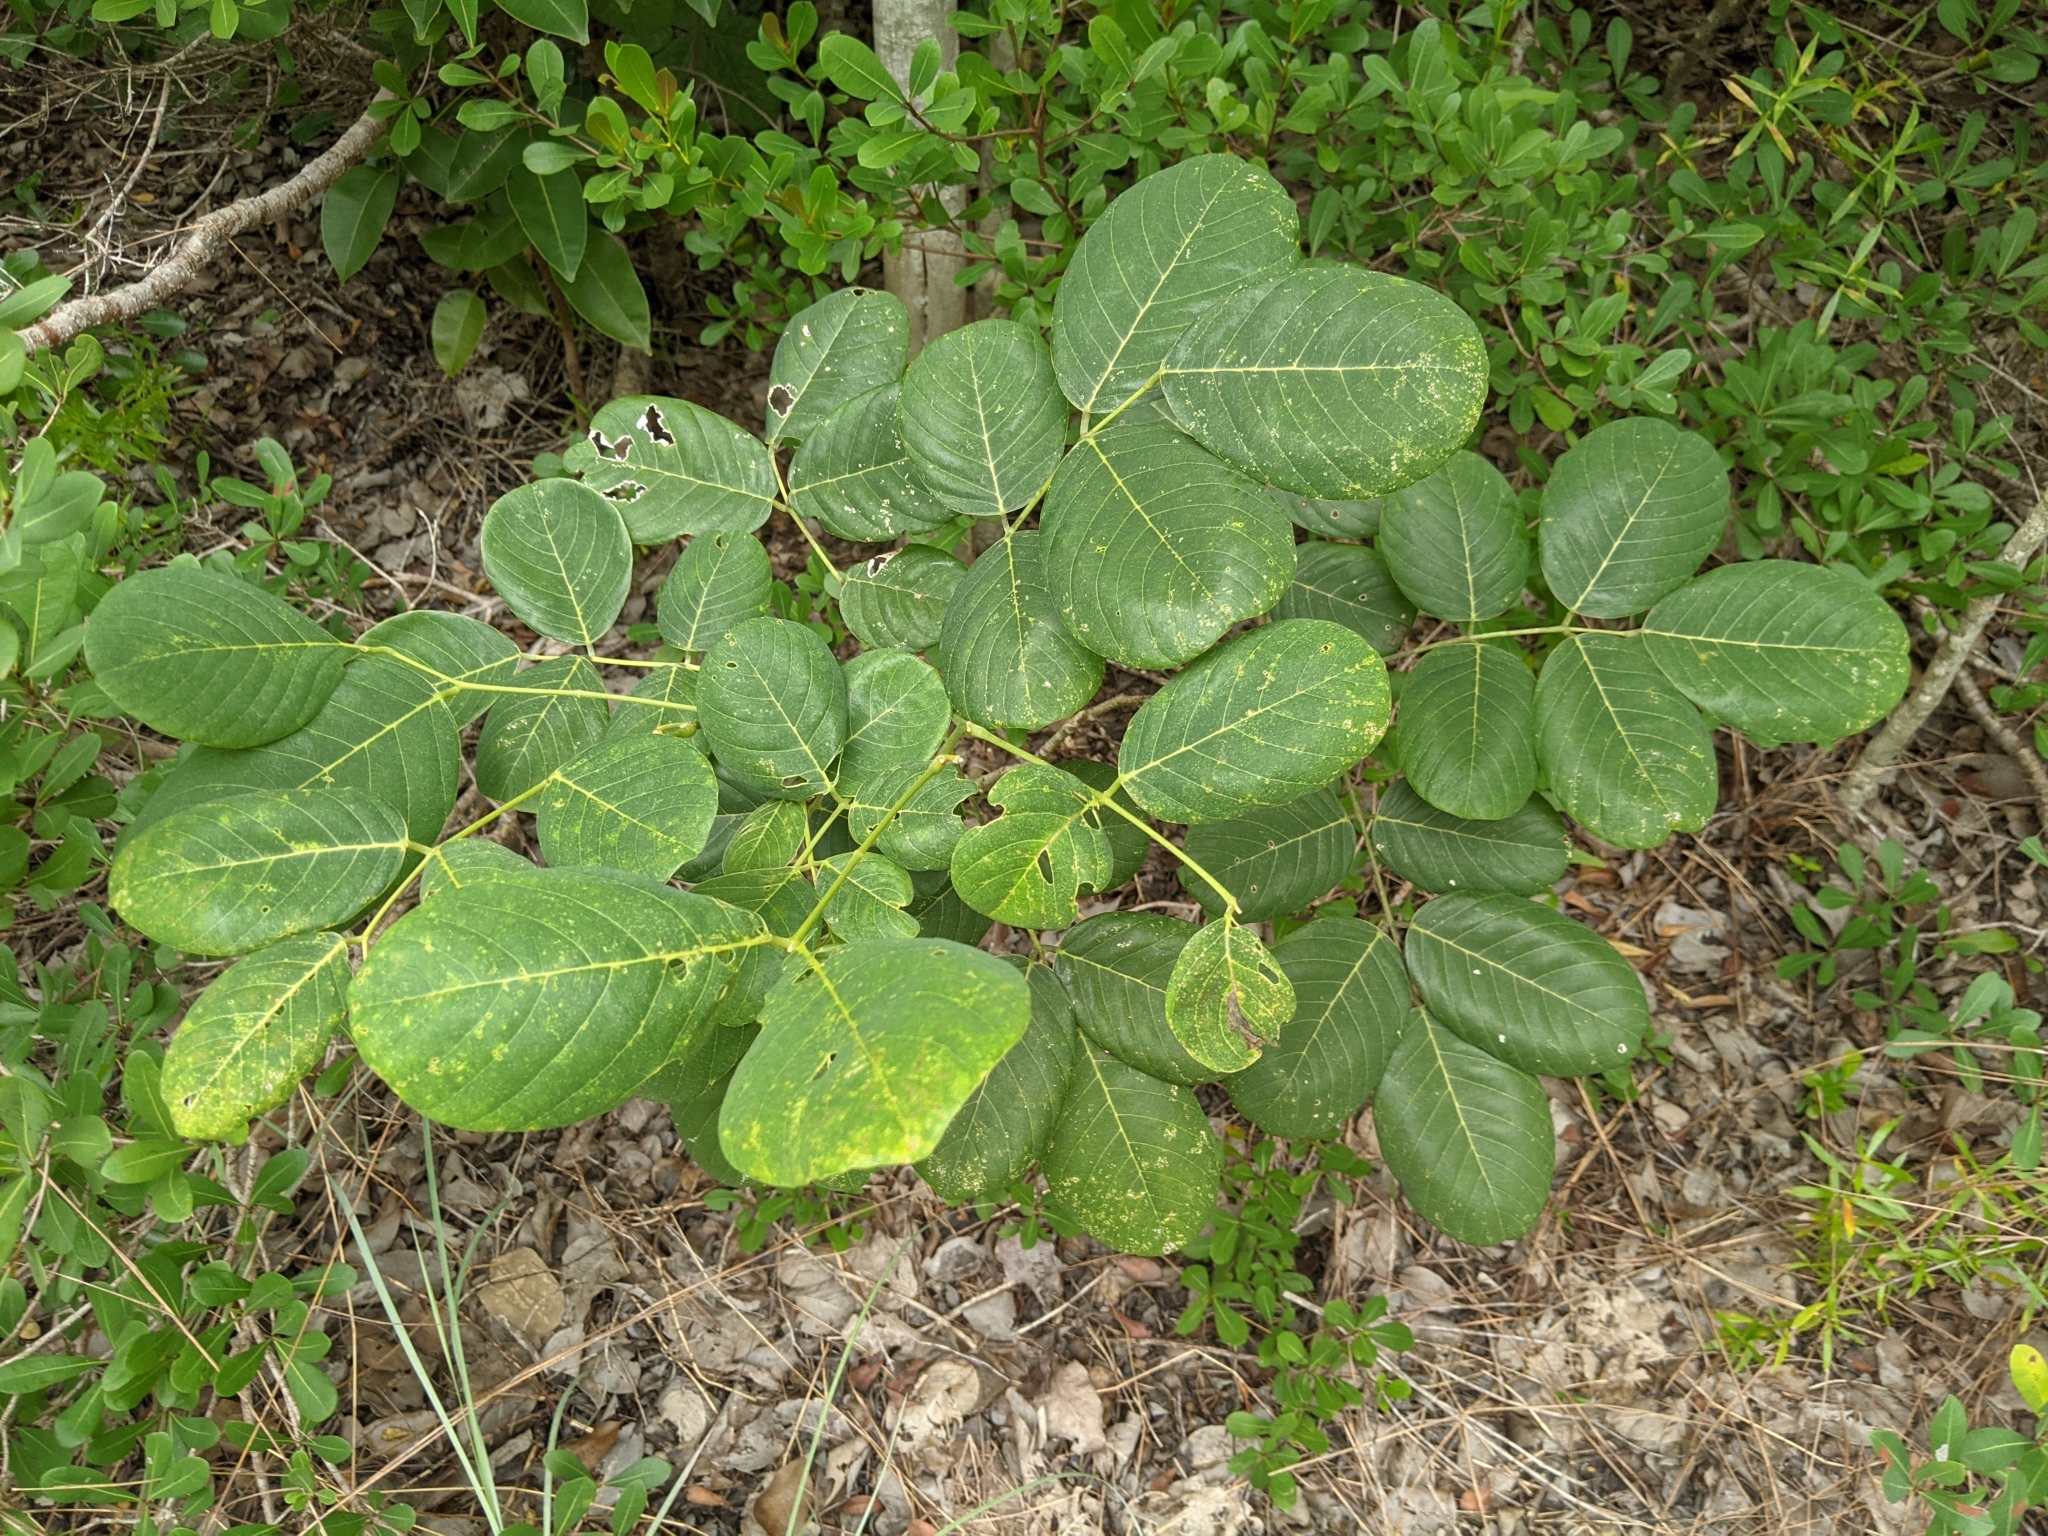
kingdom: Plantae
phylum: Tracheophyta
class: Magnoliopsida
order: Fabales
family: Fabaceae
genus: Piscidia
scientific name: Piscidia piscipula
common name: Florida fishpoison tree
